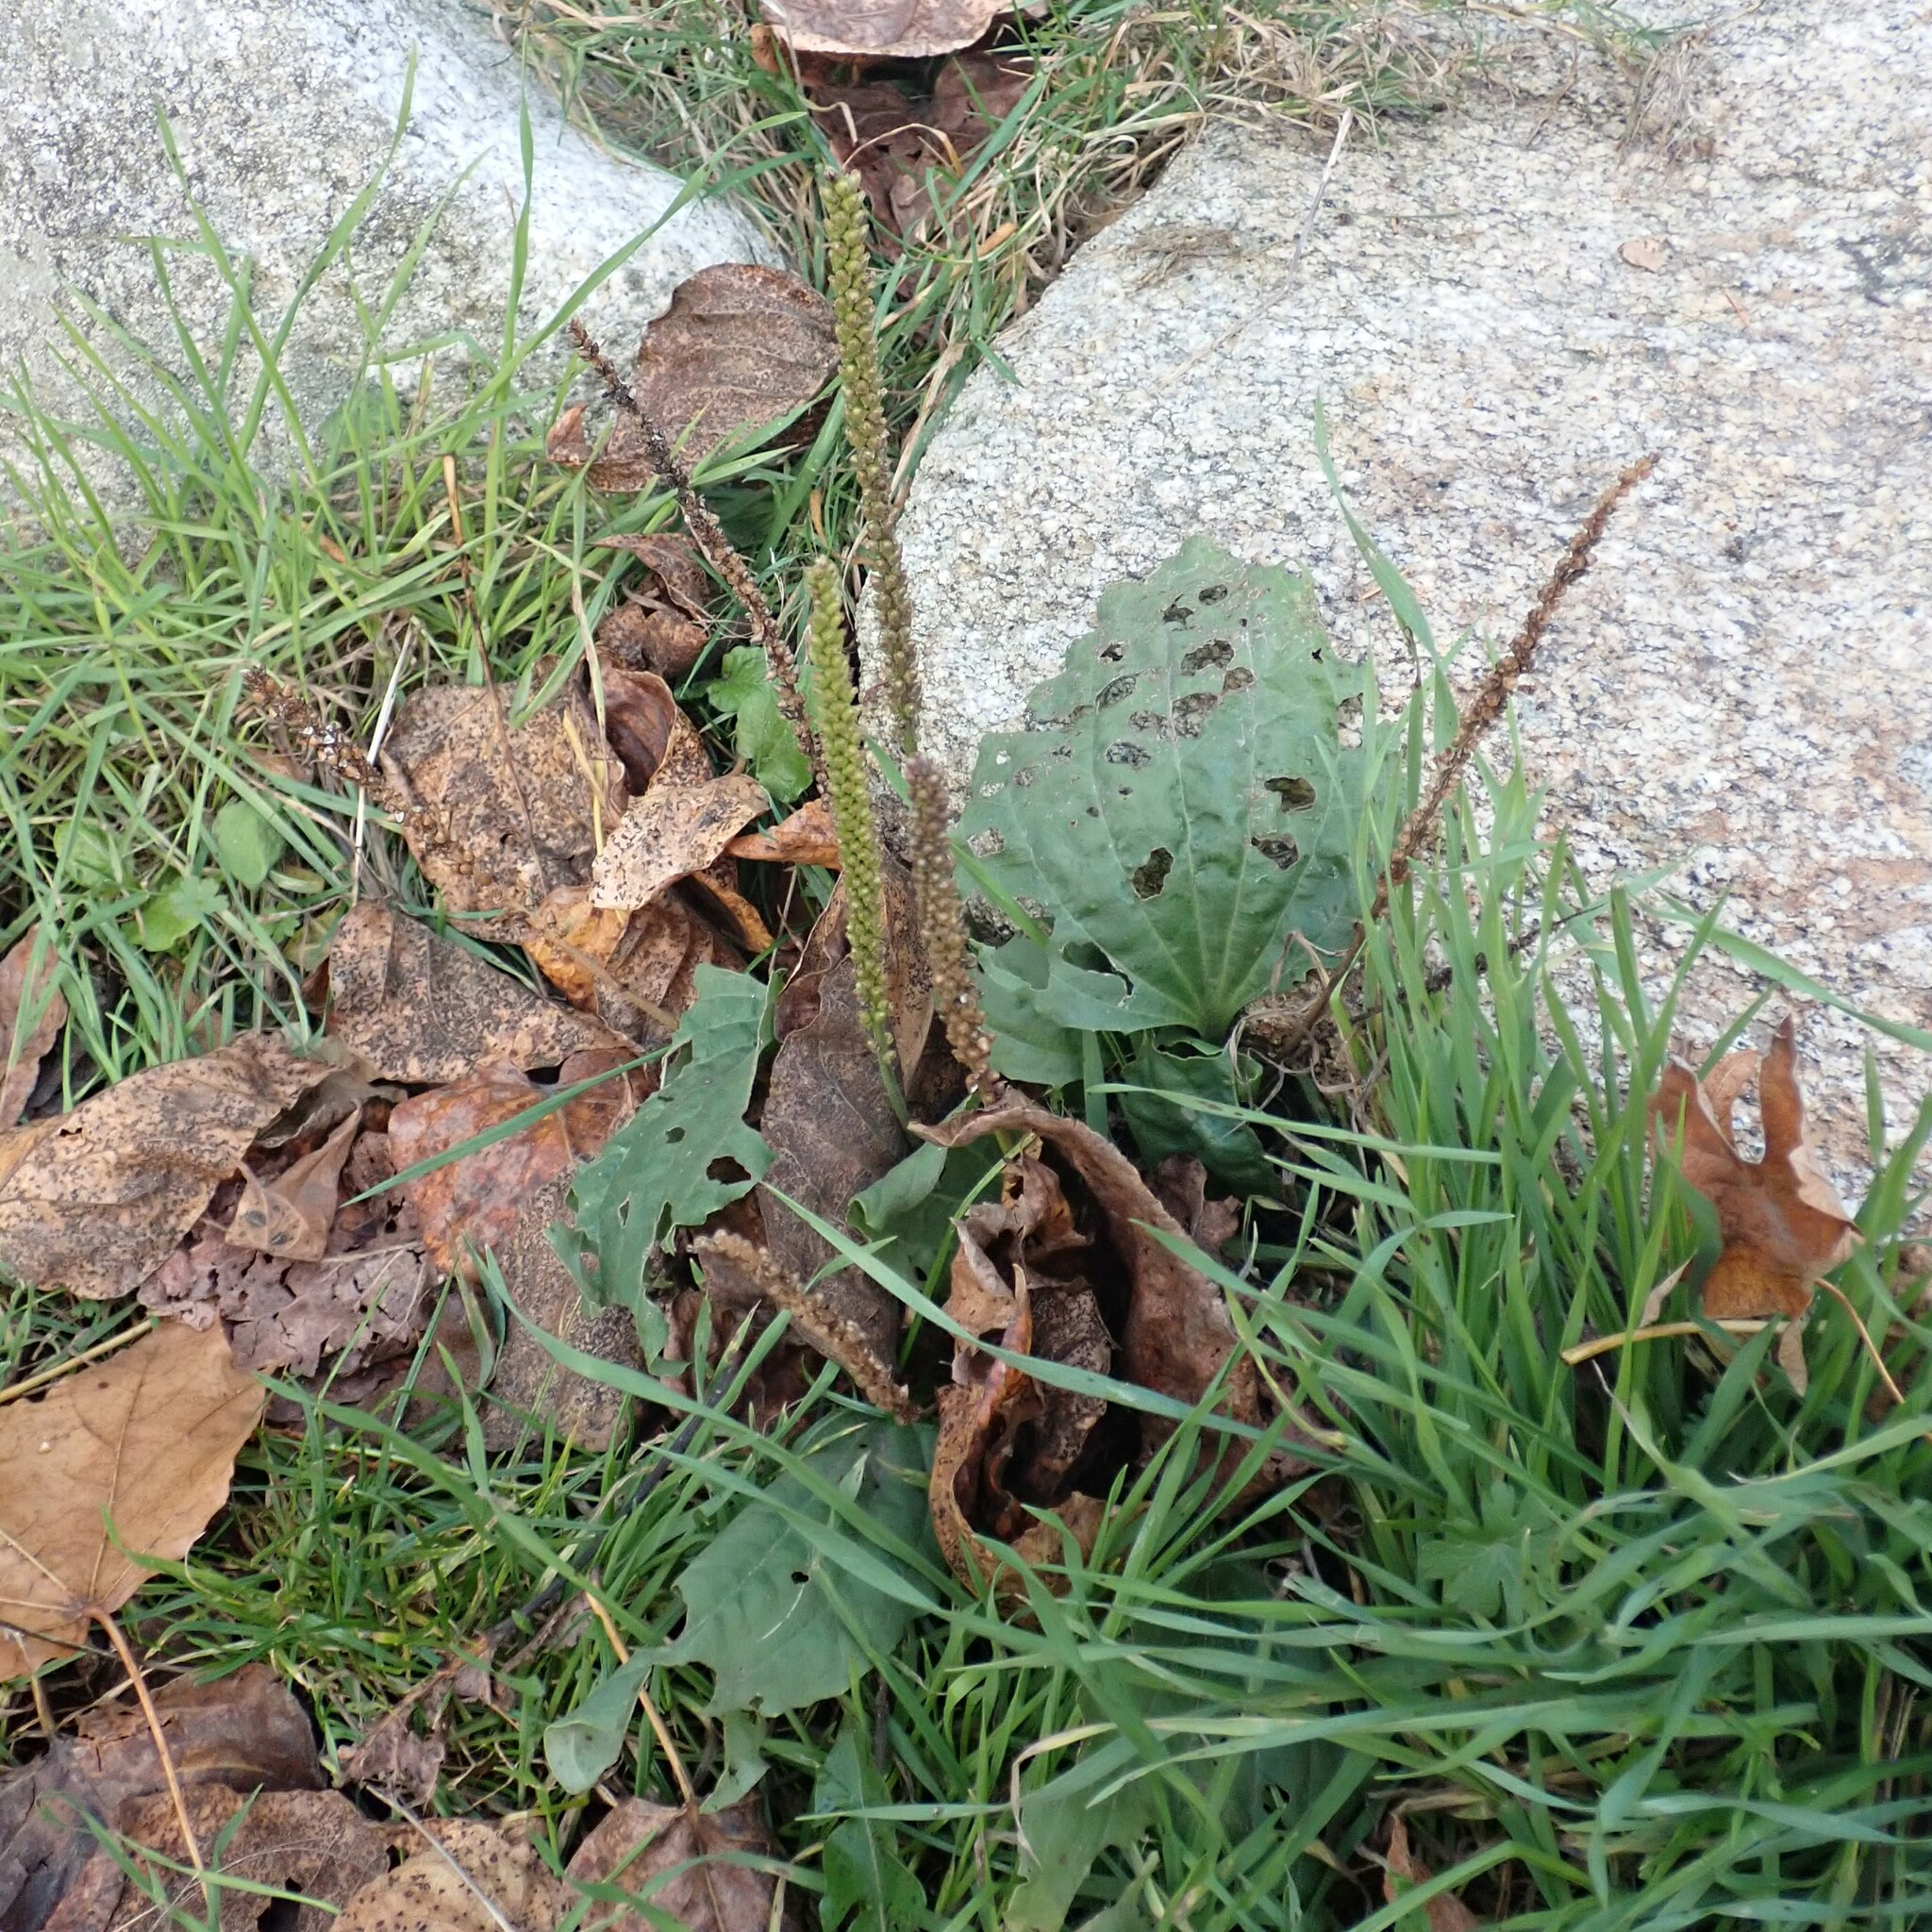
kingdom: Plantae
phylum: Tracheophyta
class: Magnoliopsida
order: Lamiales
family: Plantaginaceae
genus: Plantago
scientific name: Plantago major
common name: Common plantain
